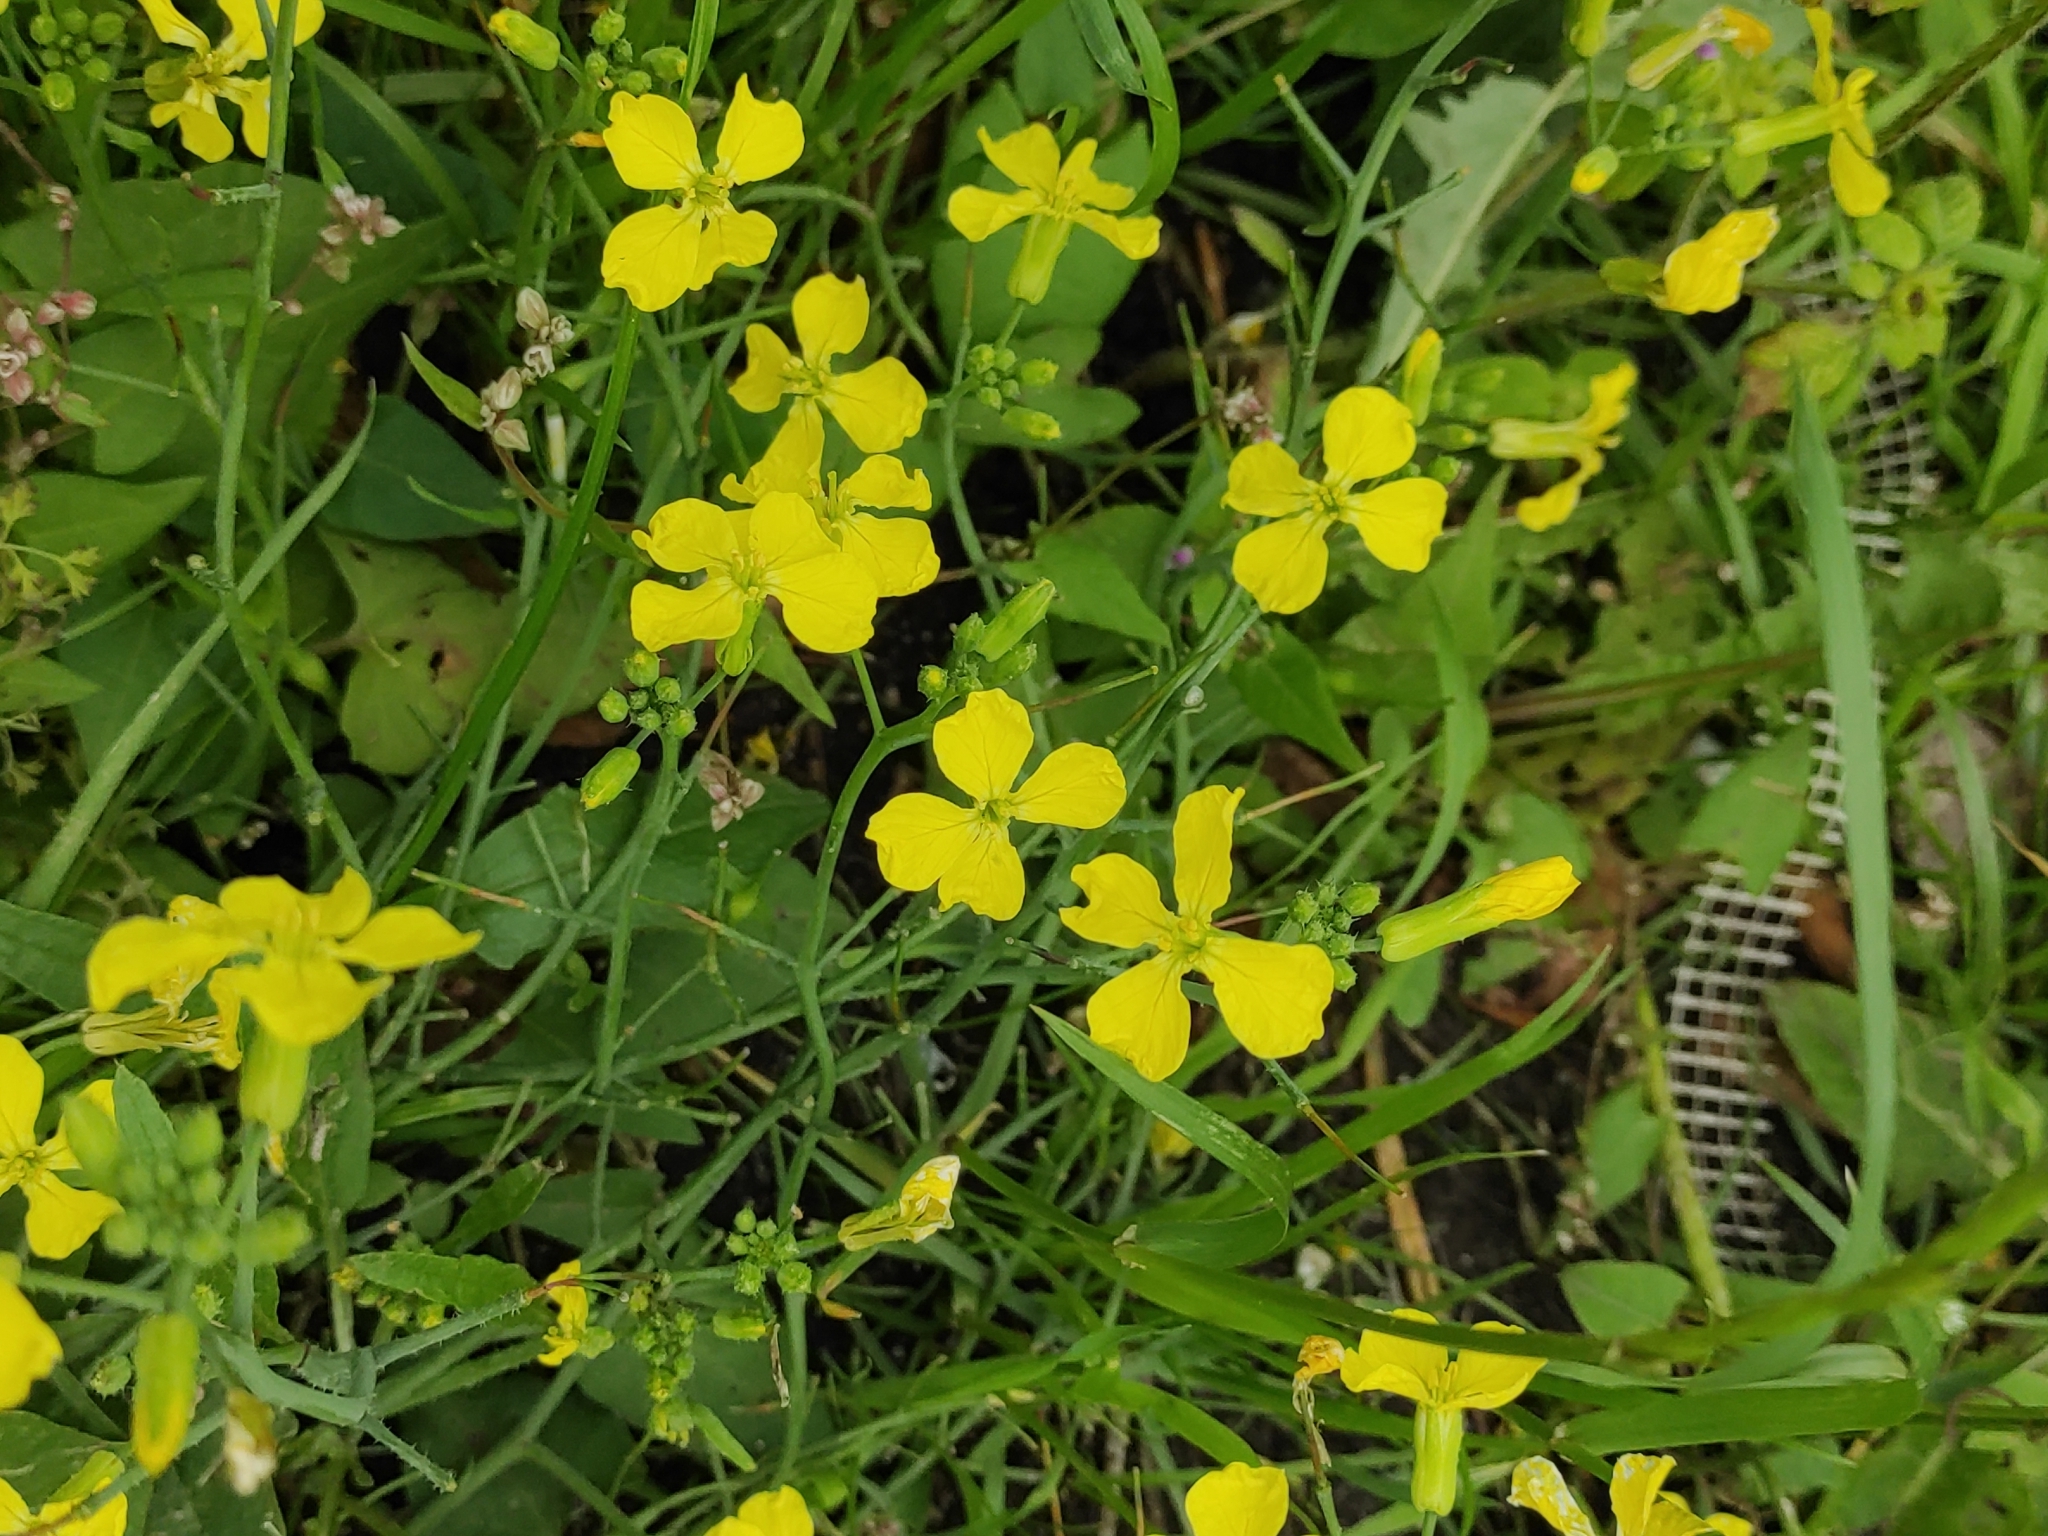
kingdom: Plantae
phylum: Tracheophyta
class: Magnoliopsida
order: Brassicales
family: Brassicaceae
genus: Raphanus
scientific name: Raphanus raphanistrum
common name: Wild radish
